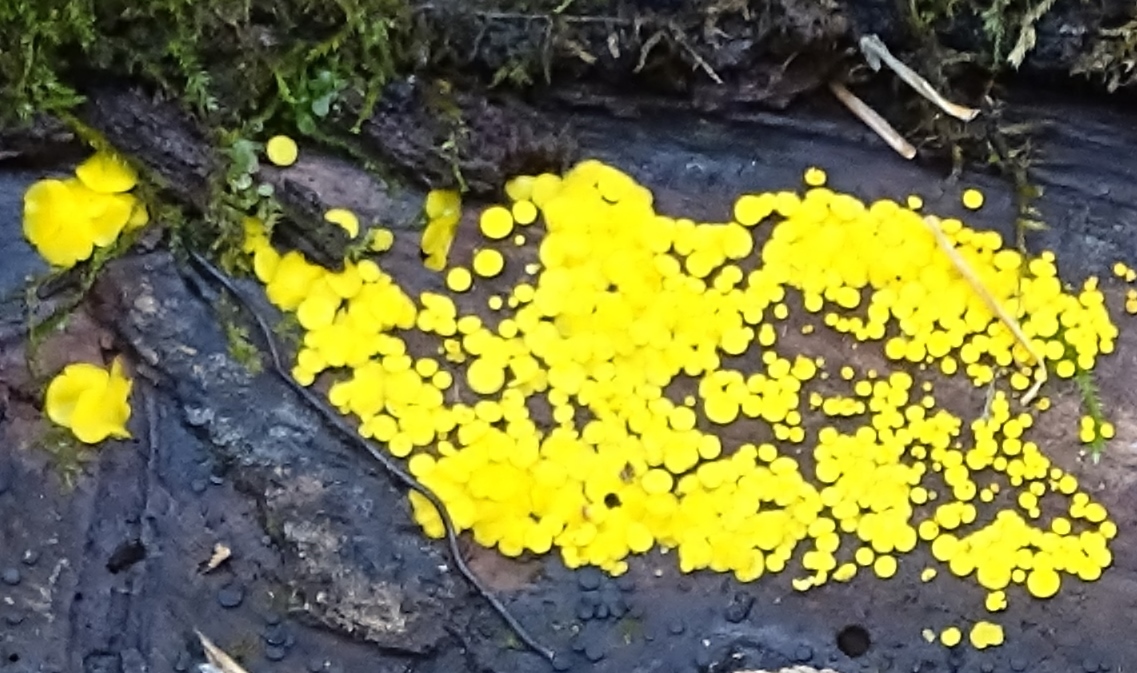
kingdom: Fungi
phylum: Ascomycota
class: Leotiomycetes
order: Helotiales
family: Pezizellaceae
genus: Calycina
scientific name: Calycina citrina
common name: Yellow fairy cups
